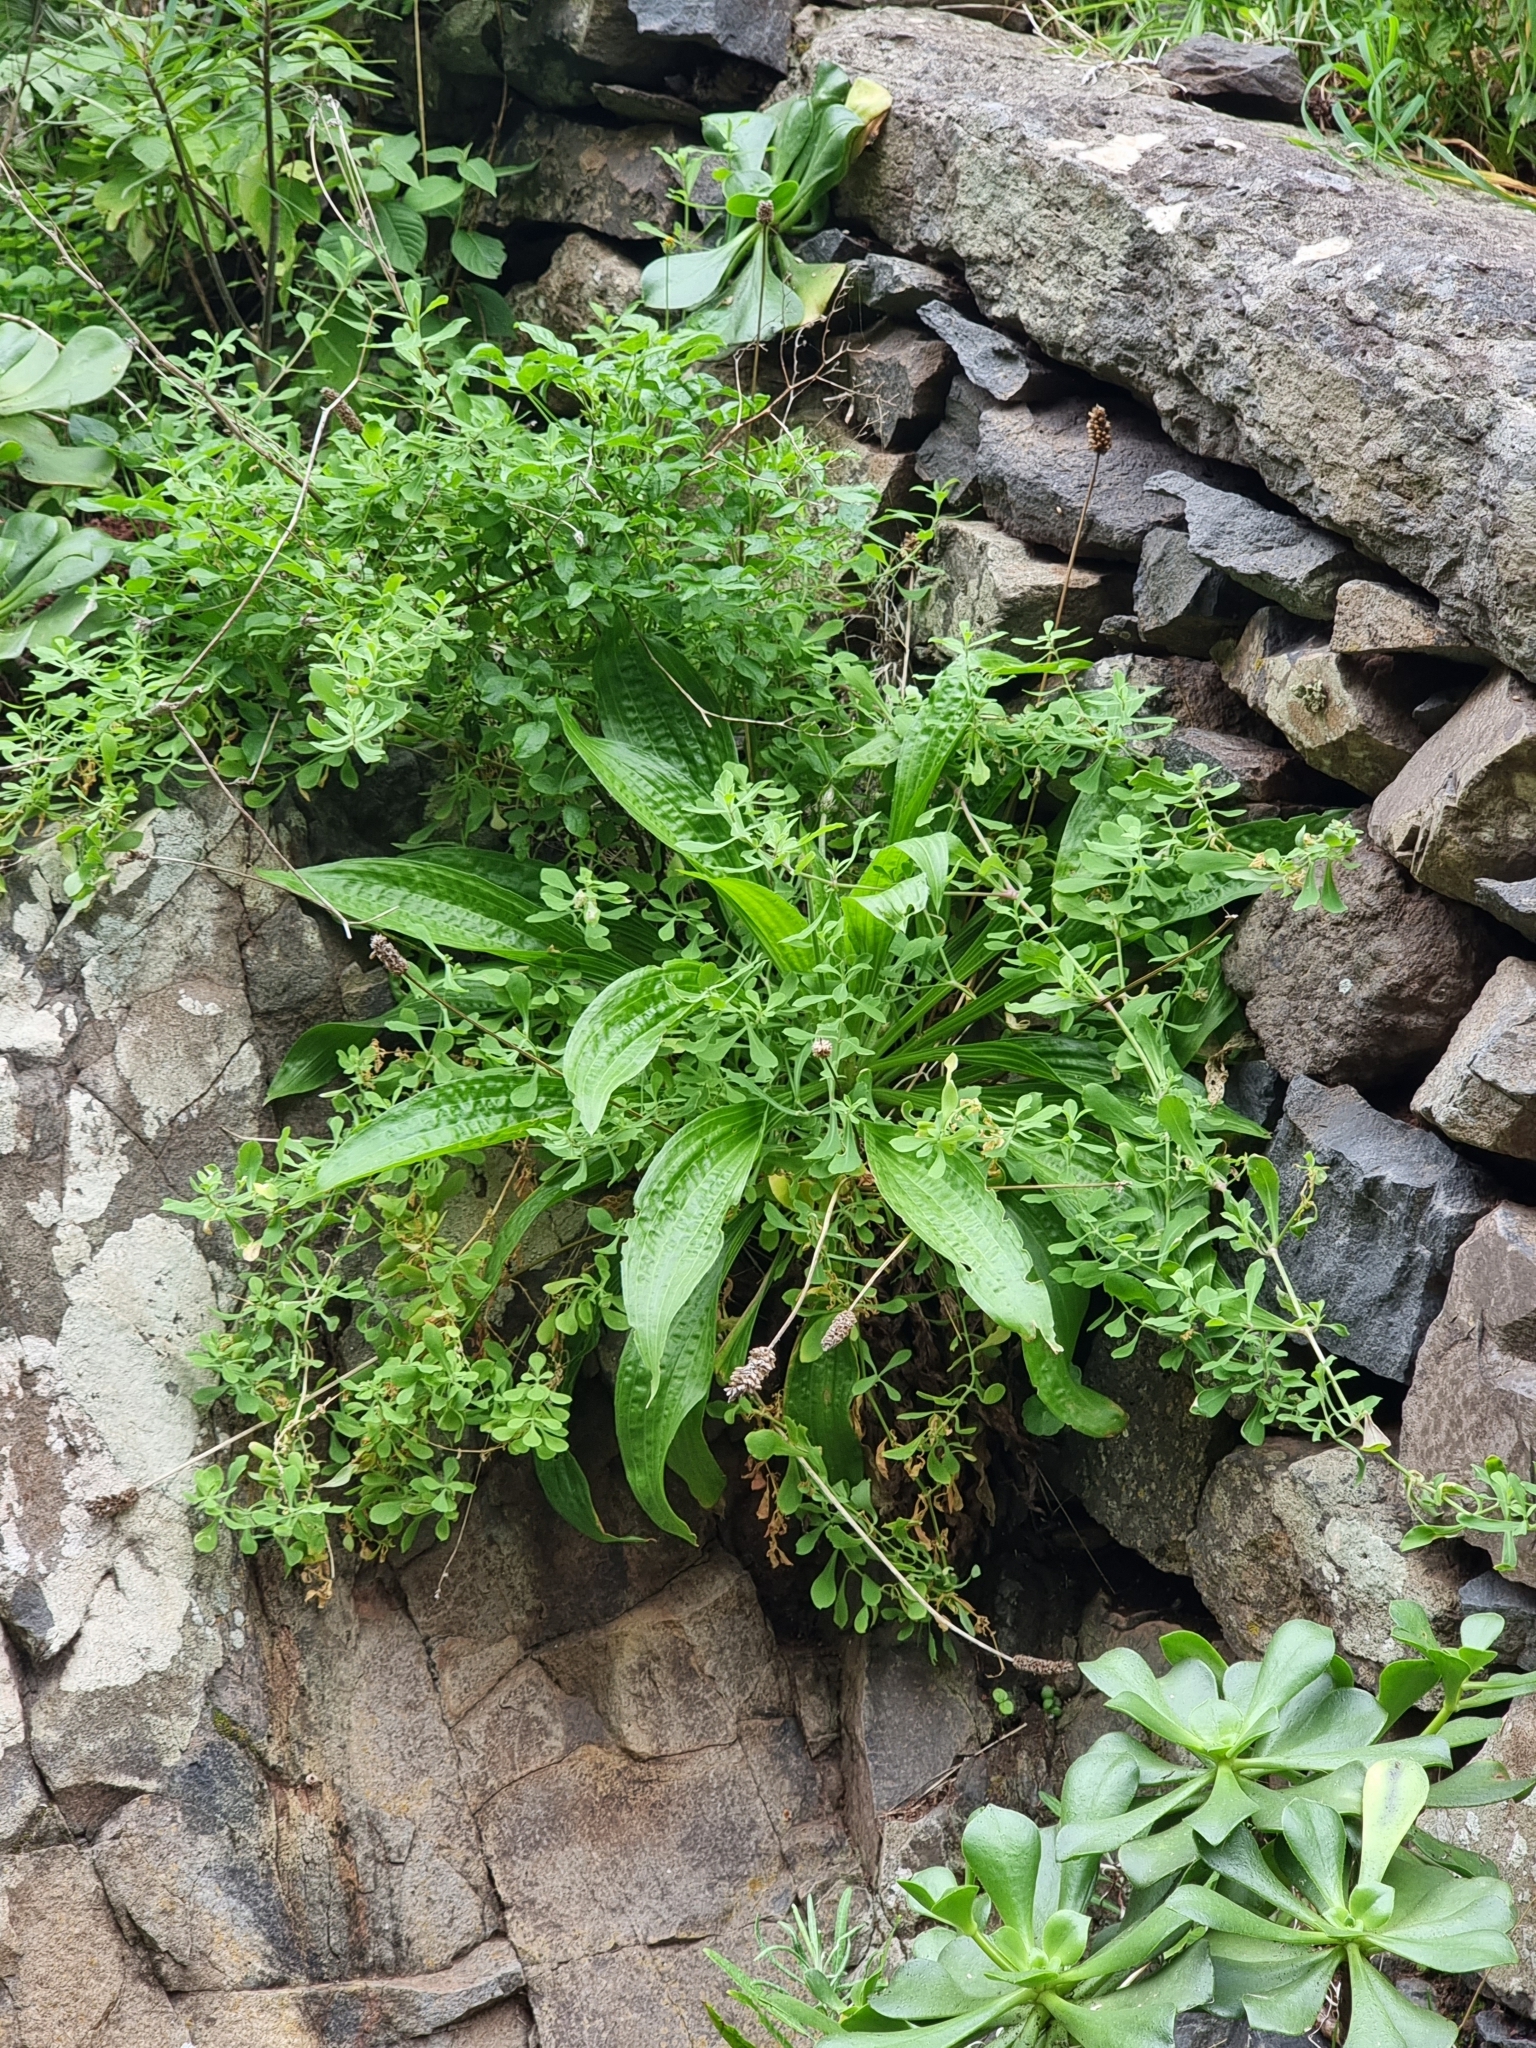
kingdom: Plantae
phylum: Tracheophyta
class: Magnoliopsida
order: Lamiales
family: Plantaginaceae
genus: Plantago
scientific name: Plantago lanceolata
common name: Ribwort plantain
